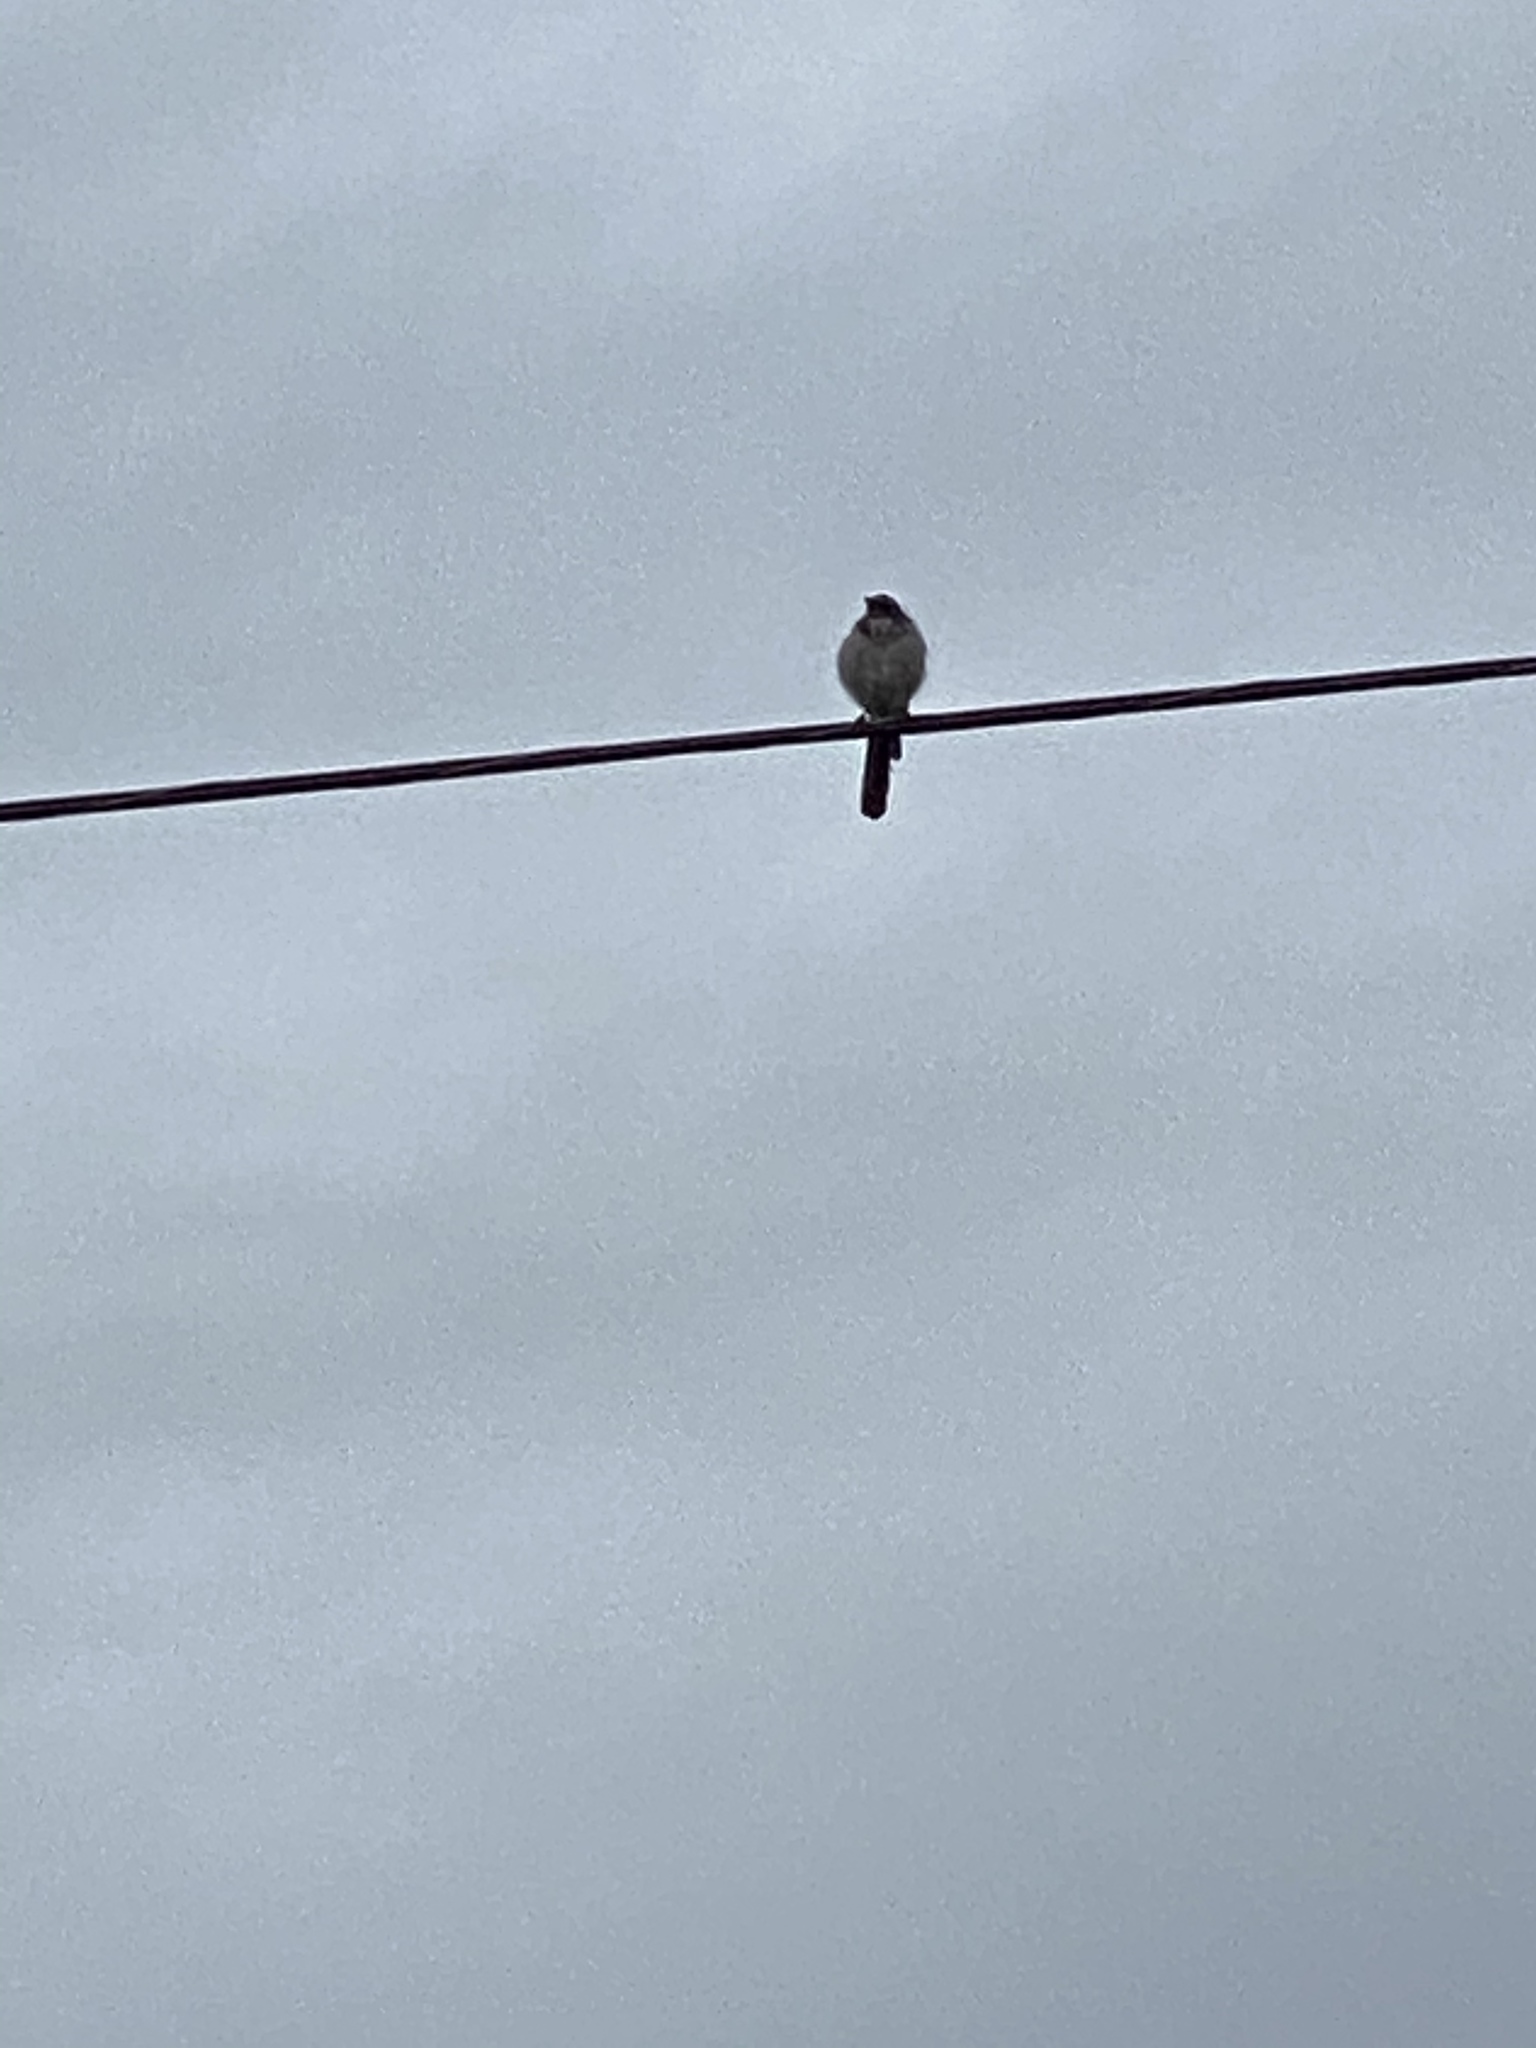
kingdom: Animalia
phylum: Chordata
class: Aves
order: Passeriformes
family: Corvidae
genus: Aphelocoma
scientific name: Aphelocoma californica
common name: California scrub-jay
